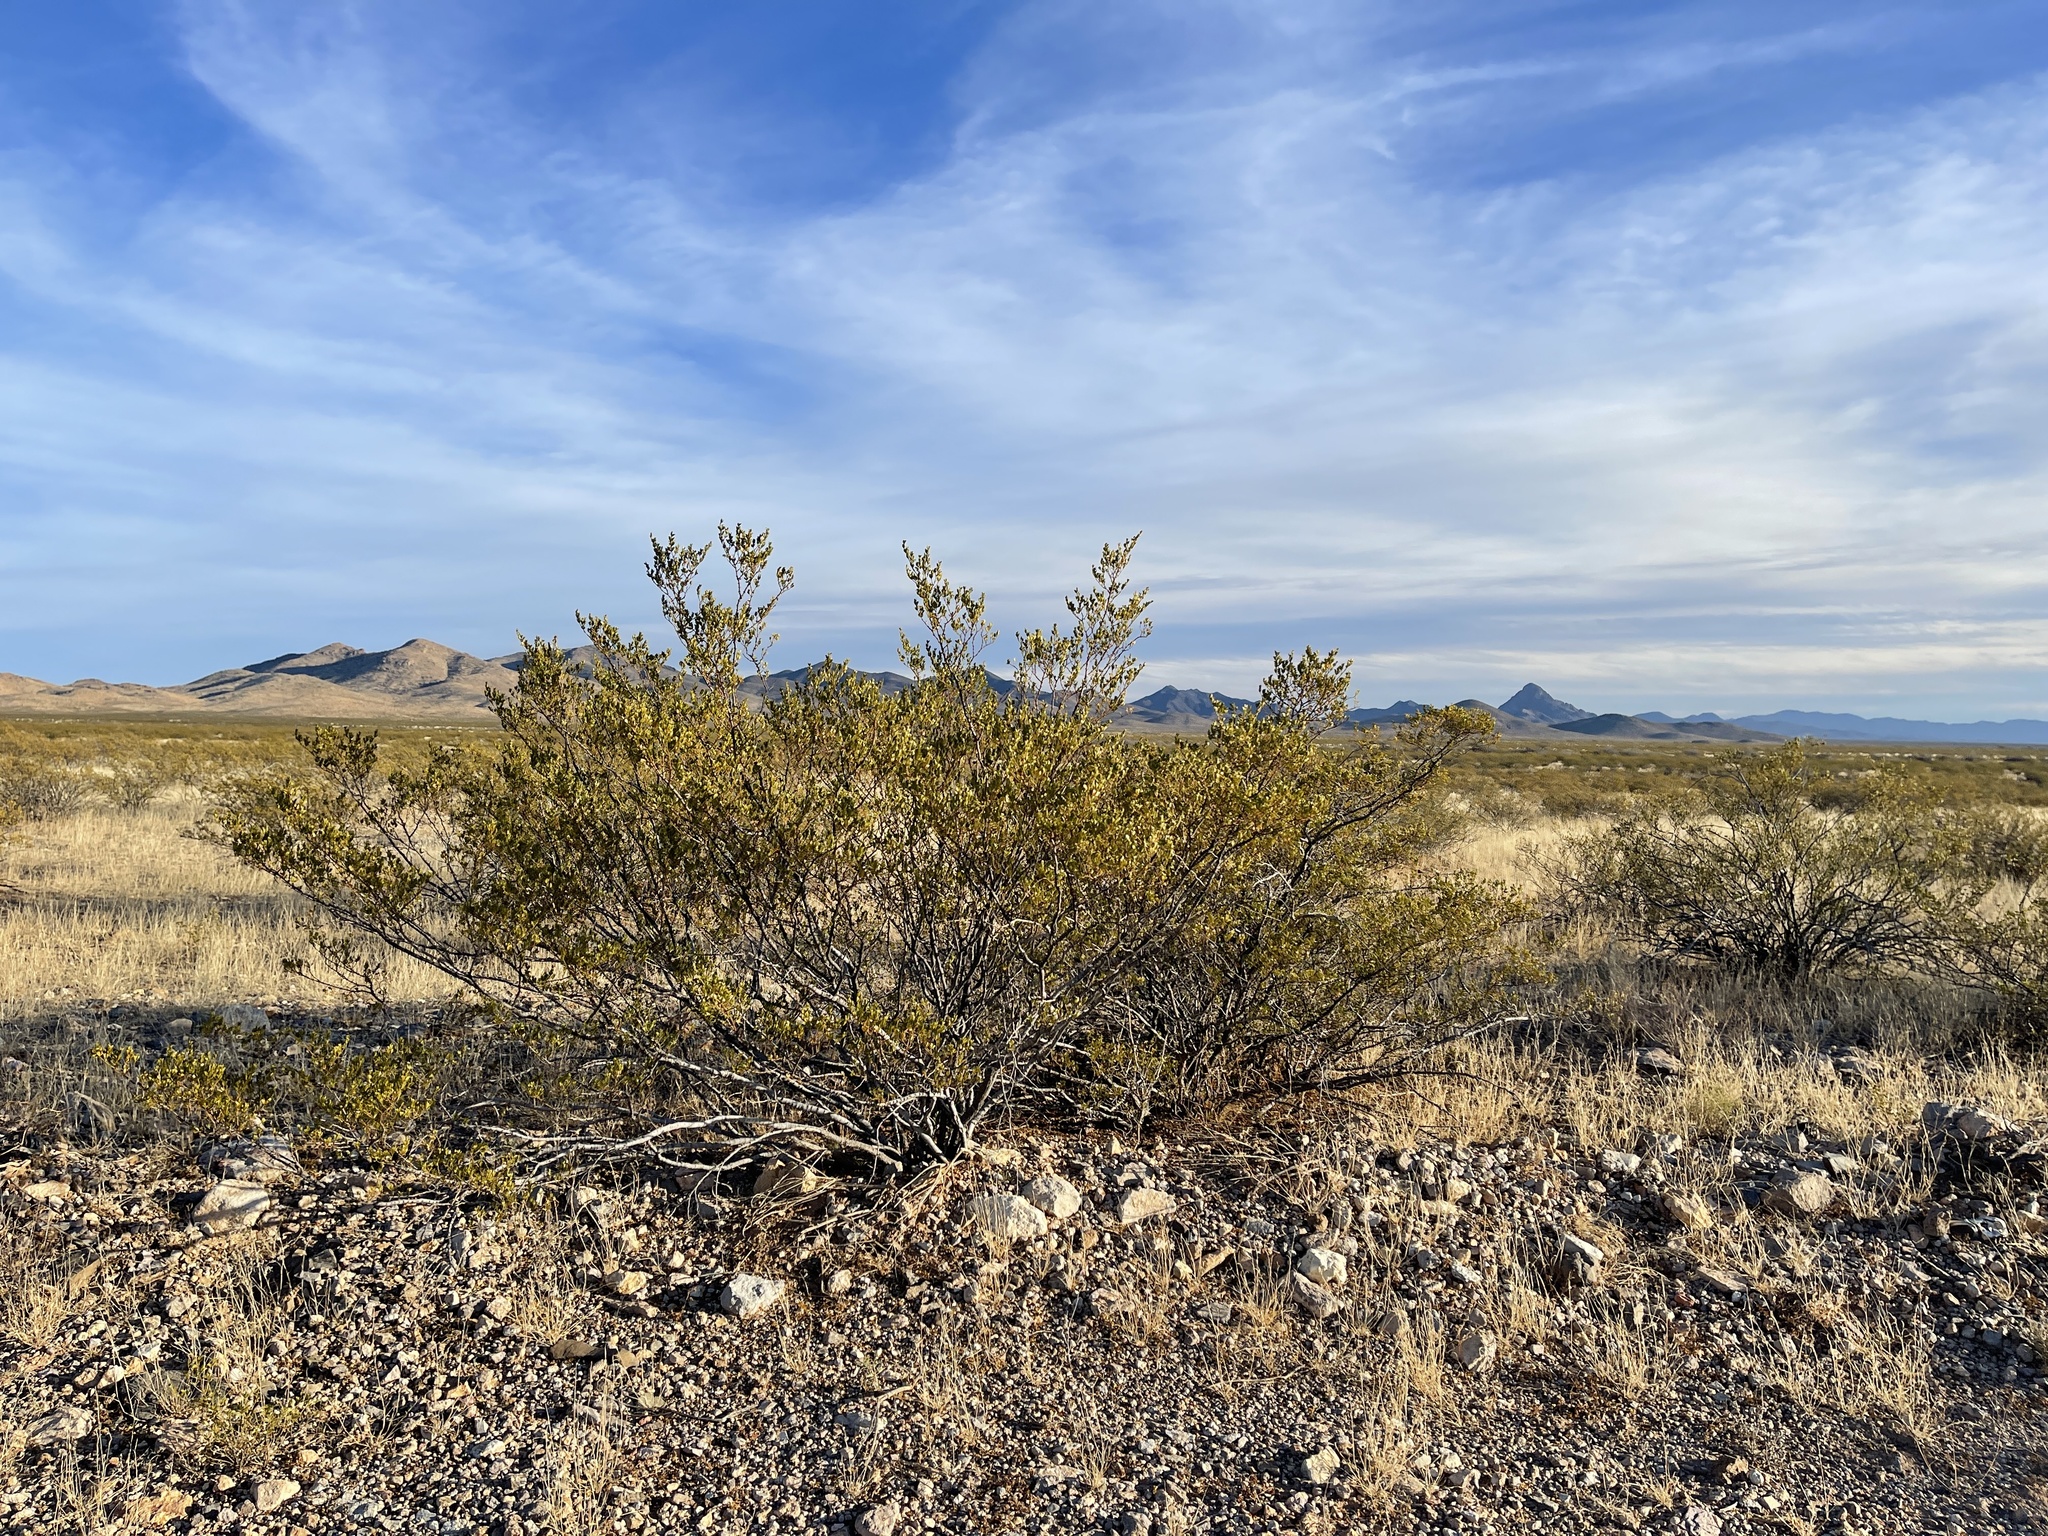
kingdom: Plantae
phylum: Tracheophyta
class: Magnoliopsida
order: Zygophyllales
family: Zygophyllaceae
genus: Larrea
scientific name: Larrea tridentata
